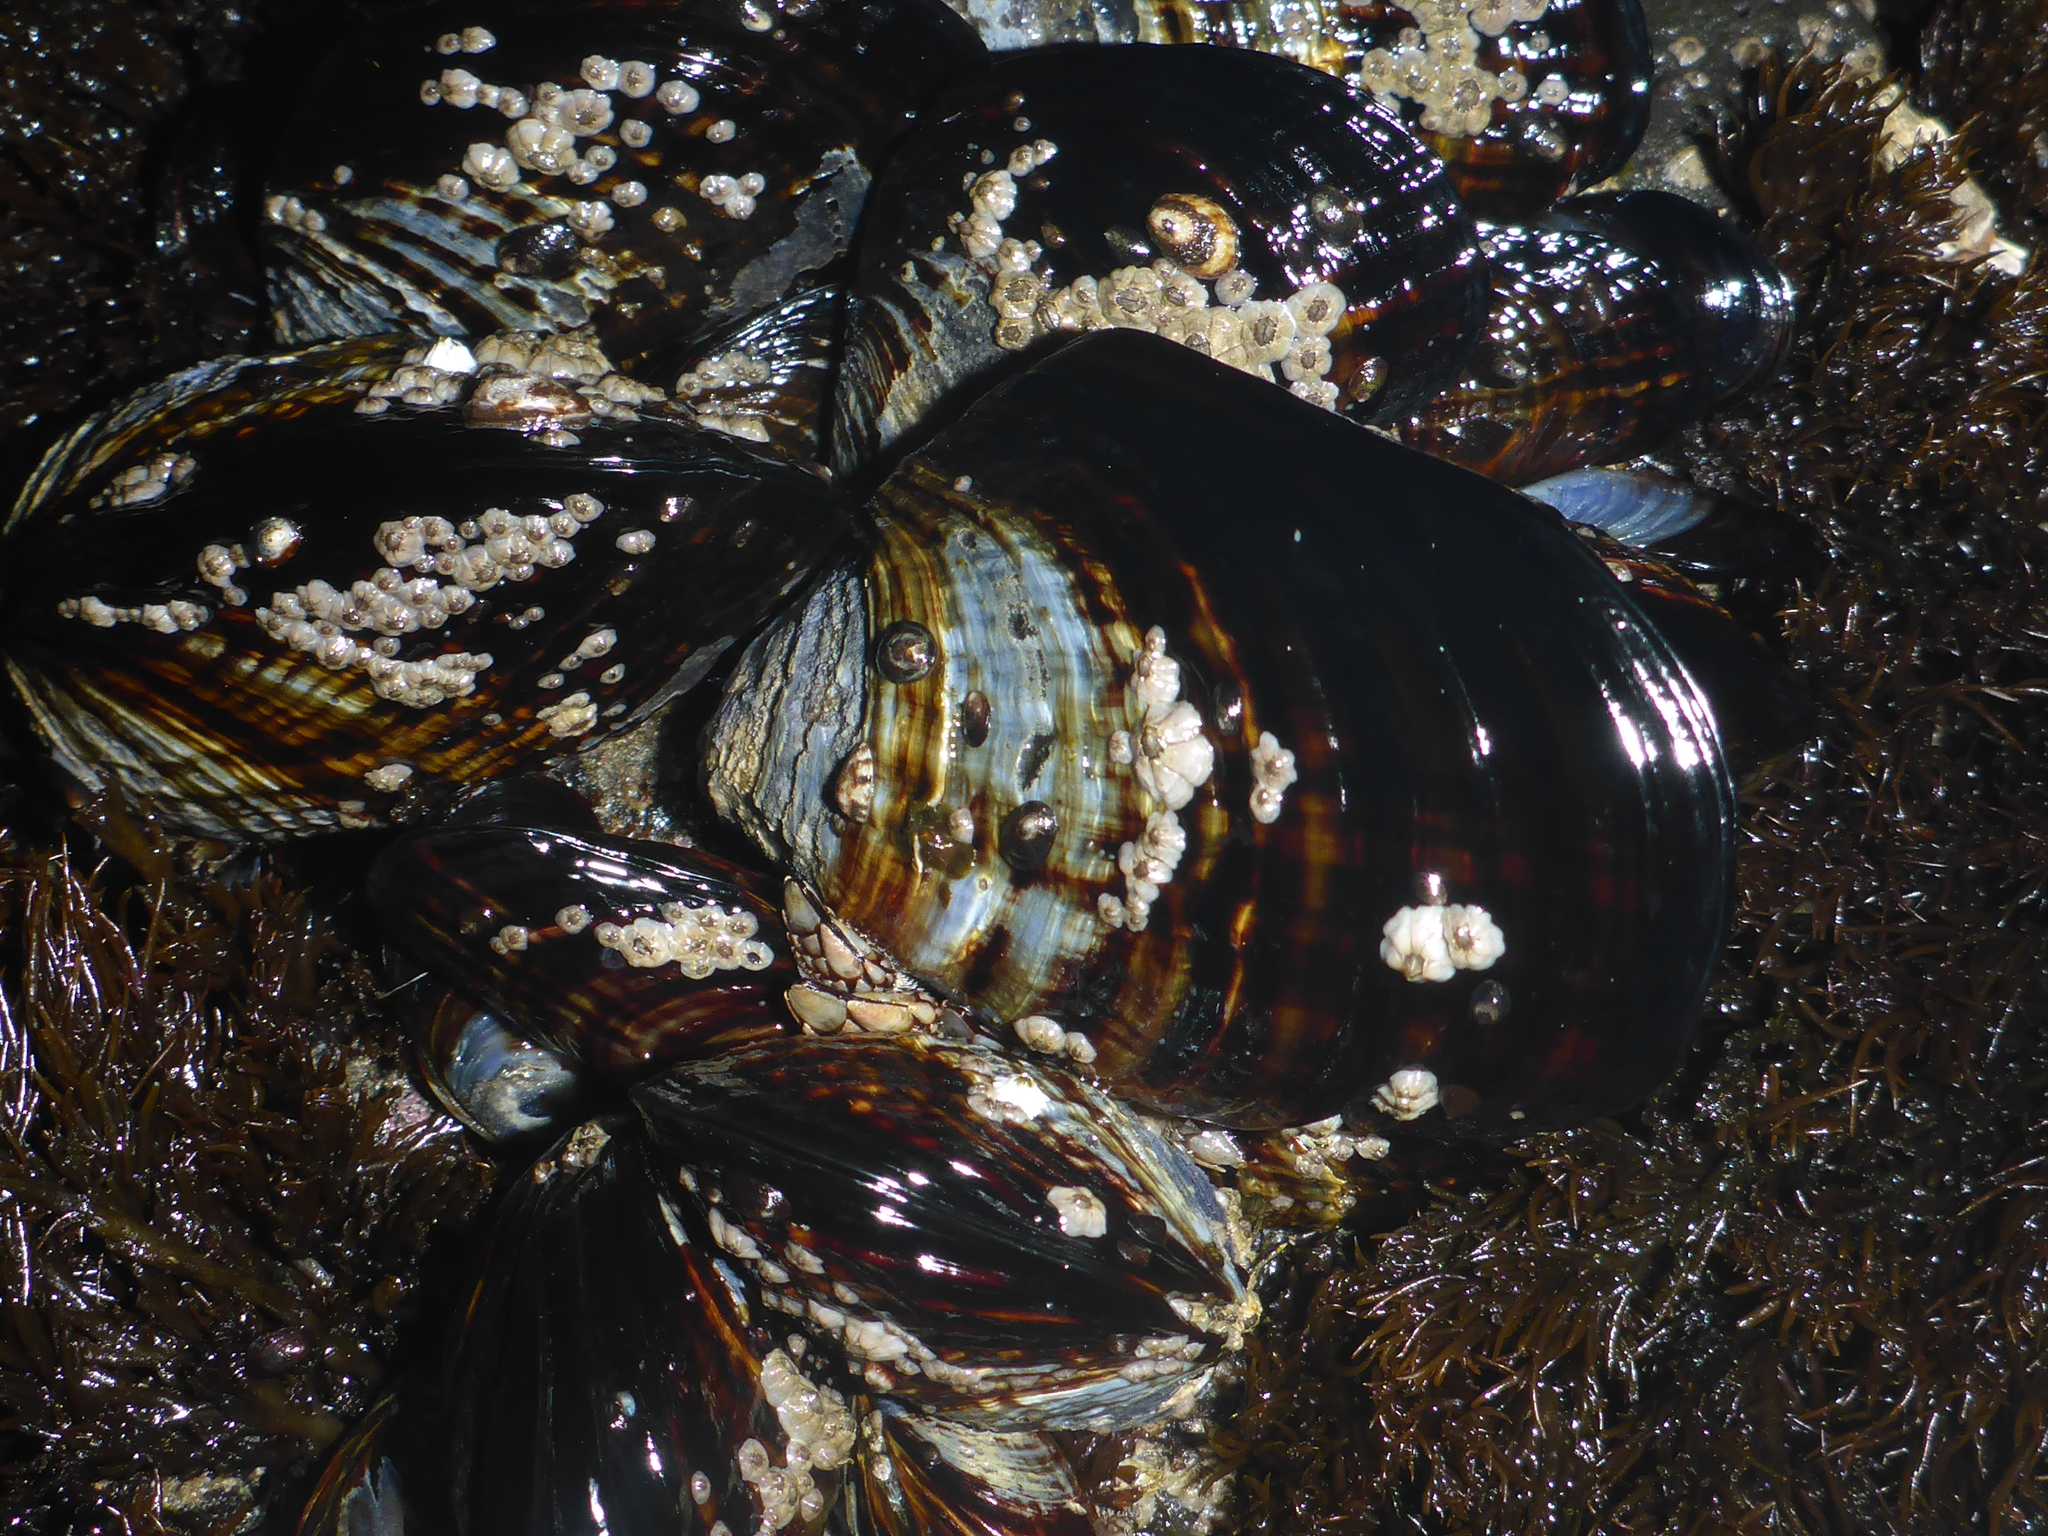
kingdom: Animalia
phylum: Mollusca
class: Bivalvia
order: Mytilida
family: Mytilidae
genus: Mytilus
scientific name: Mytilus californianus
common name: California mussel
